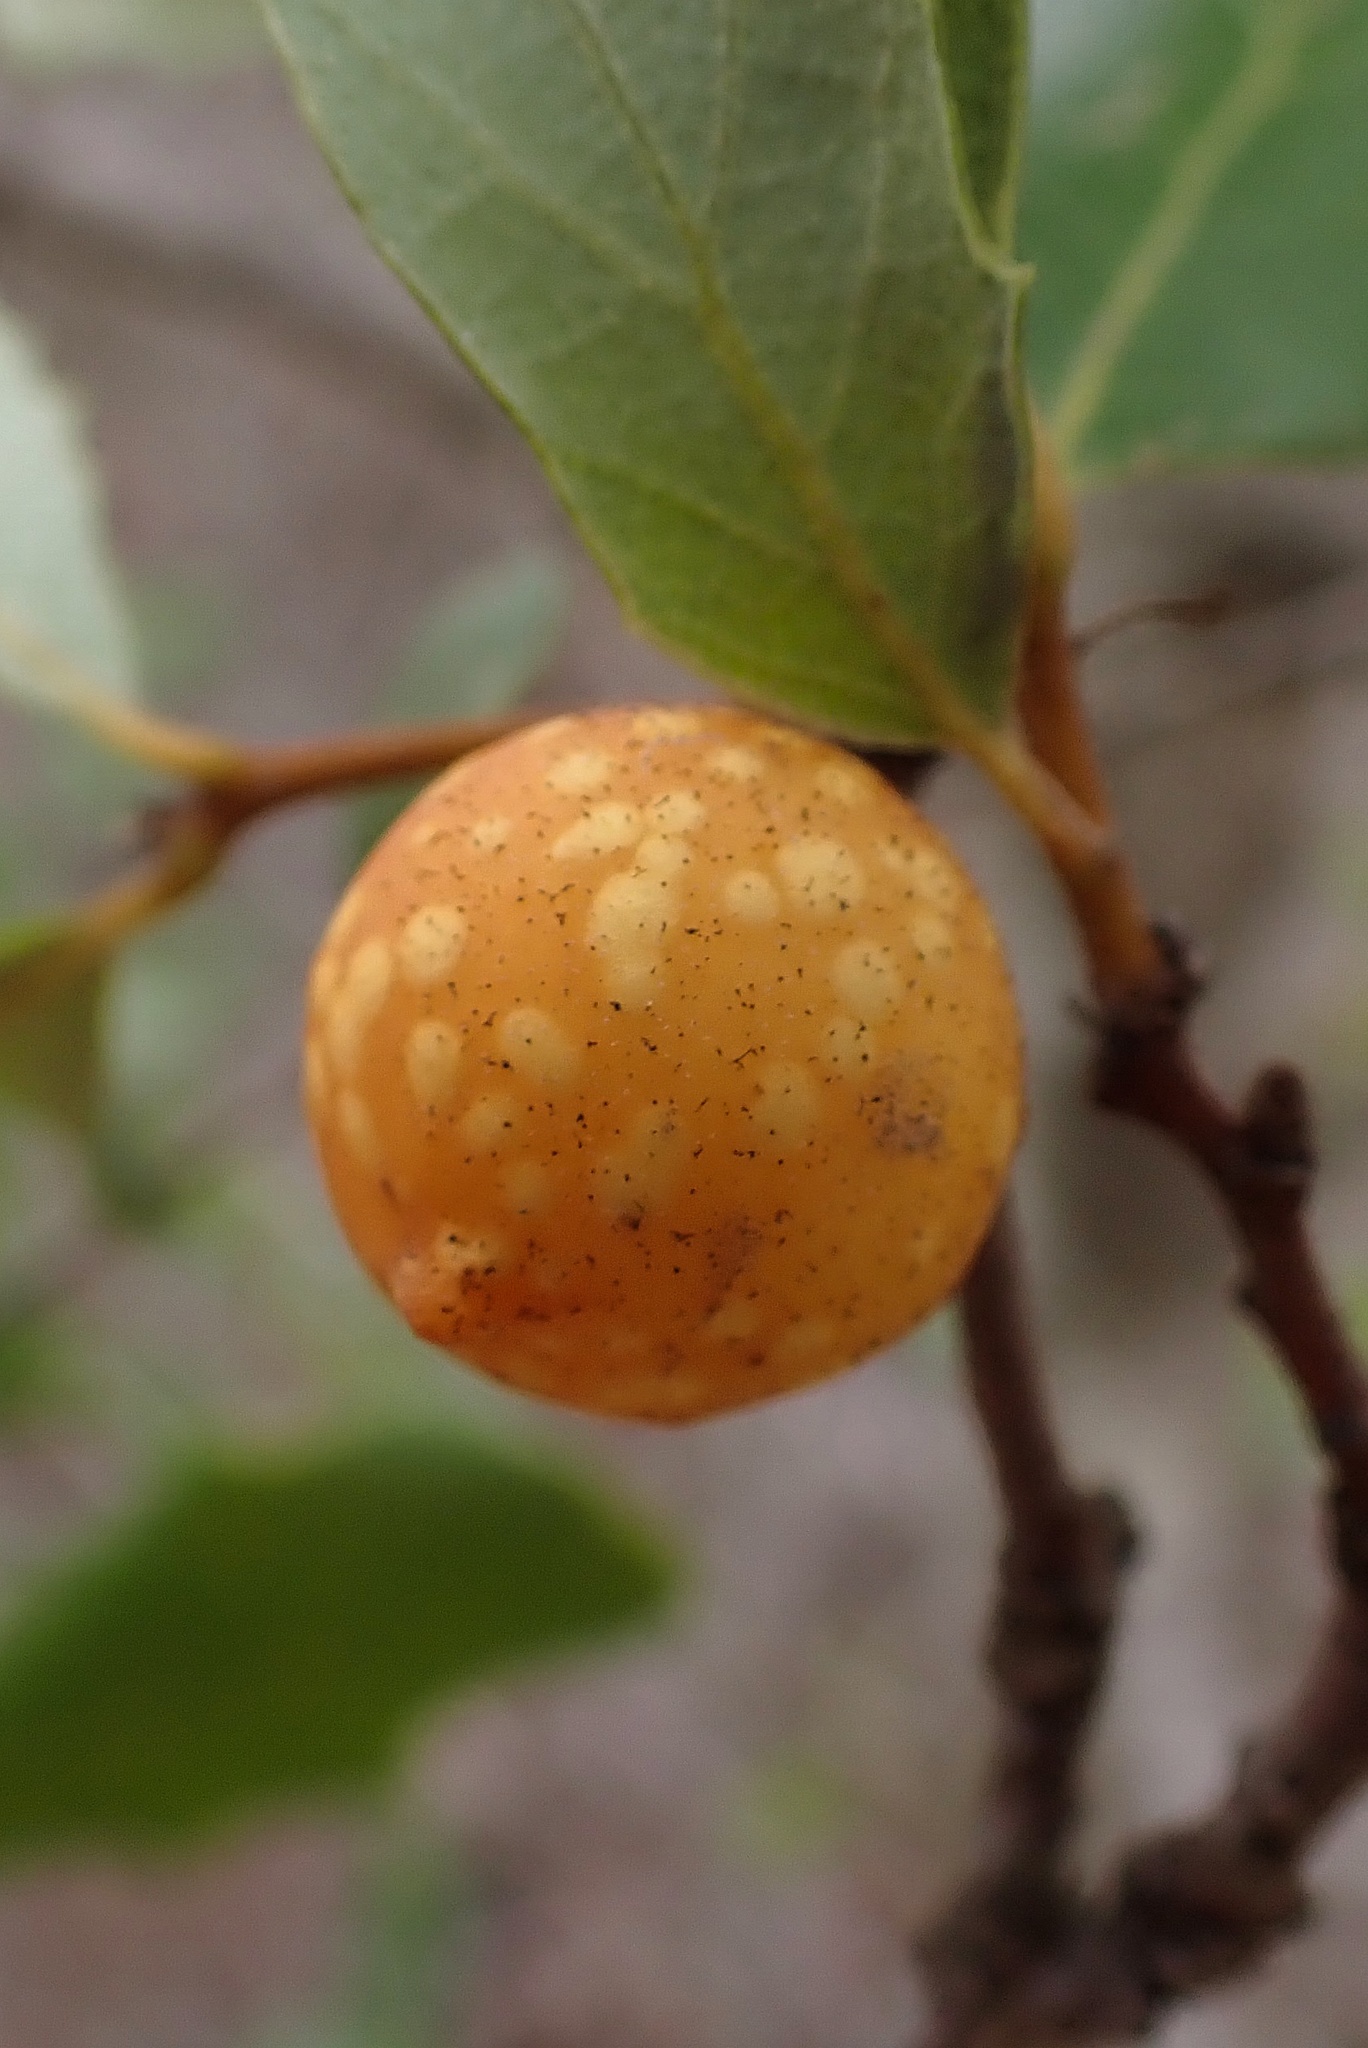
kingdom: Animalia
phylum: Arthropoda
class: Insecta
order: Hymenoptera
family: Cynipidae
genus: Burnettweldia
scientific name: Burnettweldia
